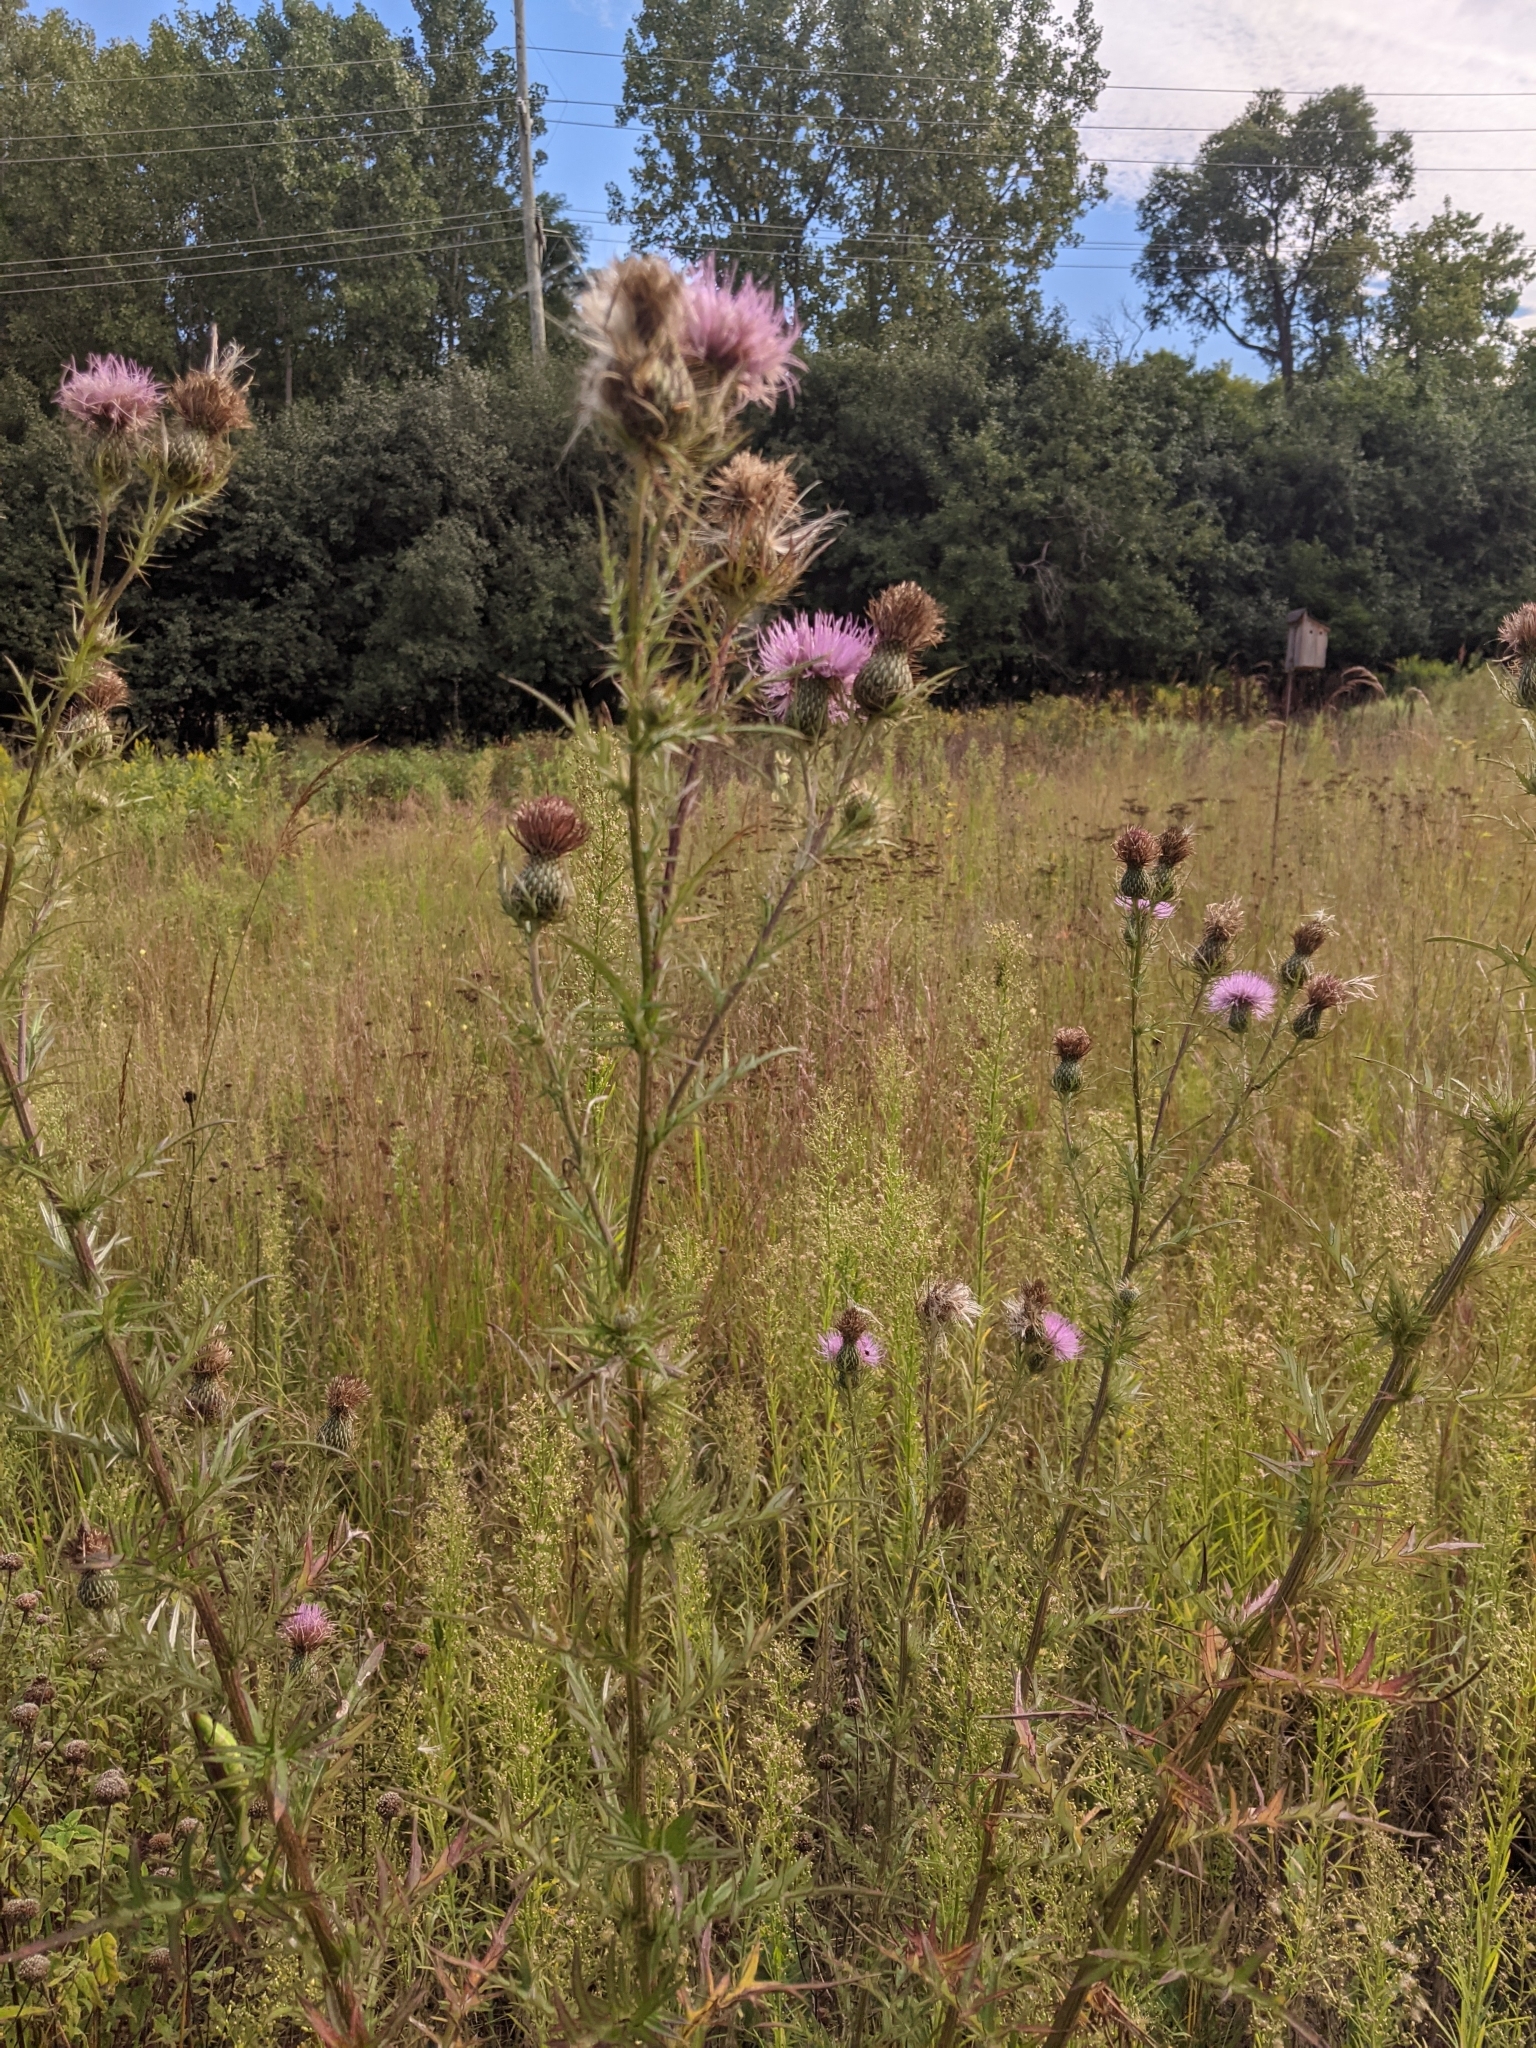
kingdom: Plantae
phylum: Tracheophyta
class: Magnoliopsida
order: Asterales
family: Asteraceae
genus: Cirsium
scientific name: Cirsium discolor
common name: Field thistle
